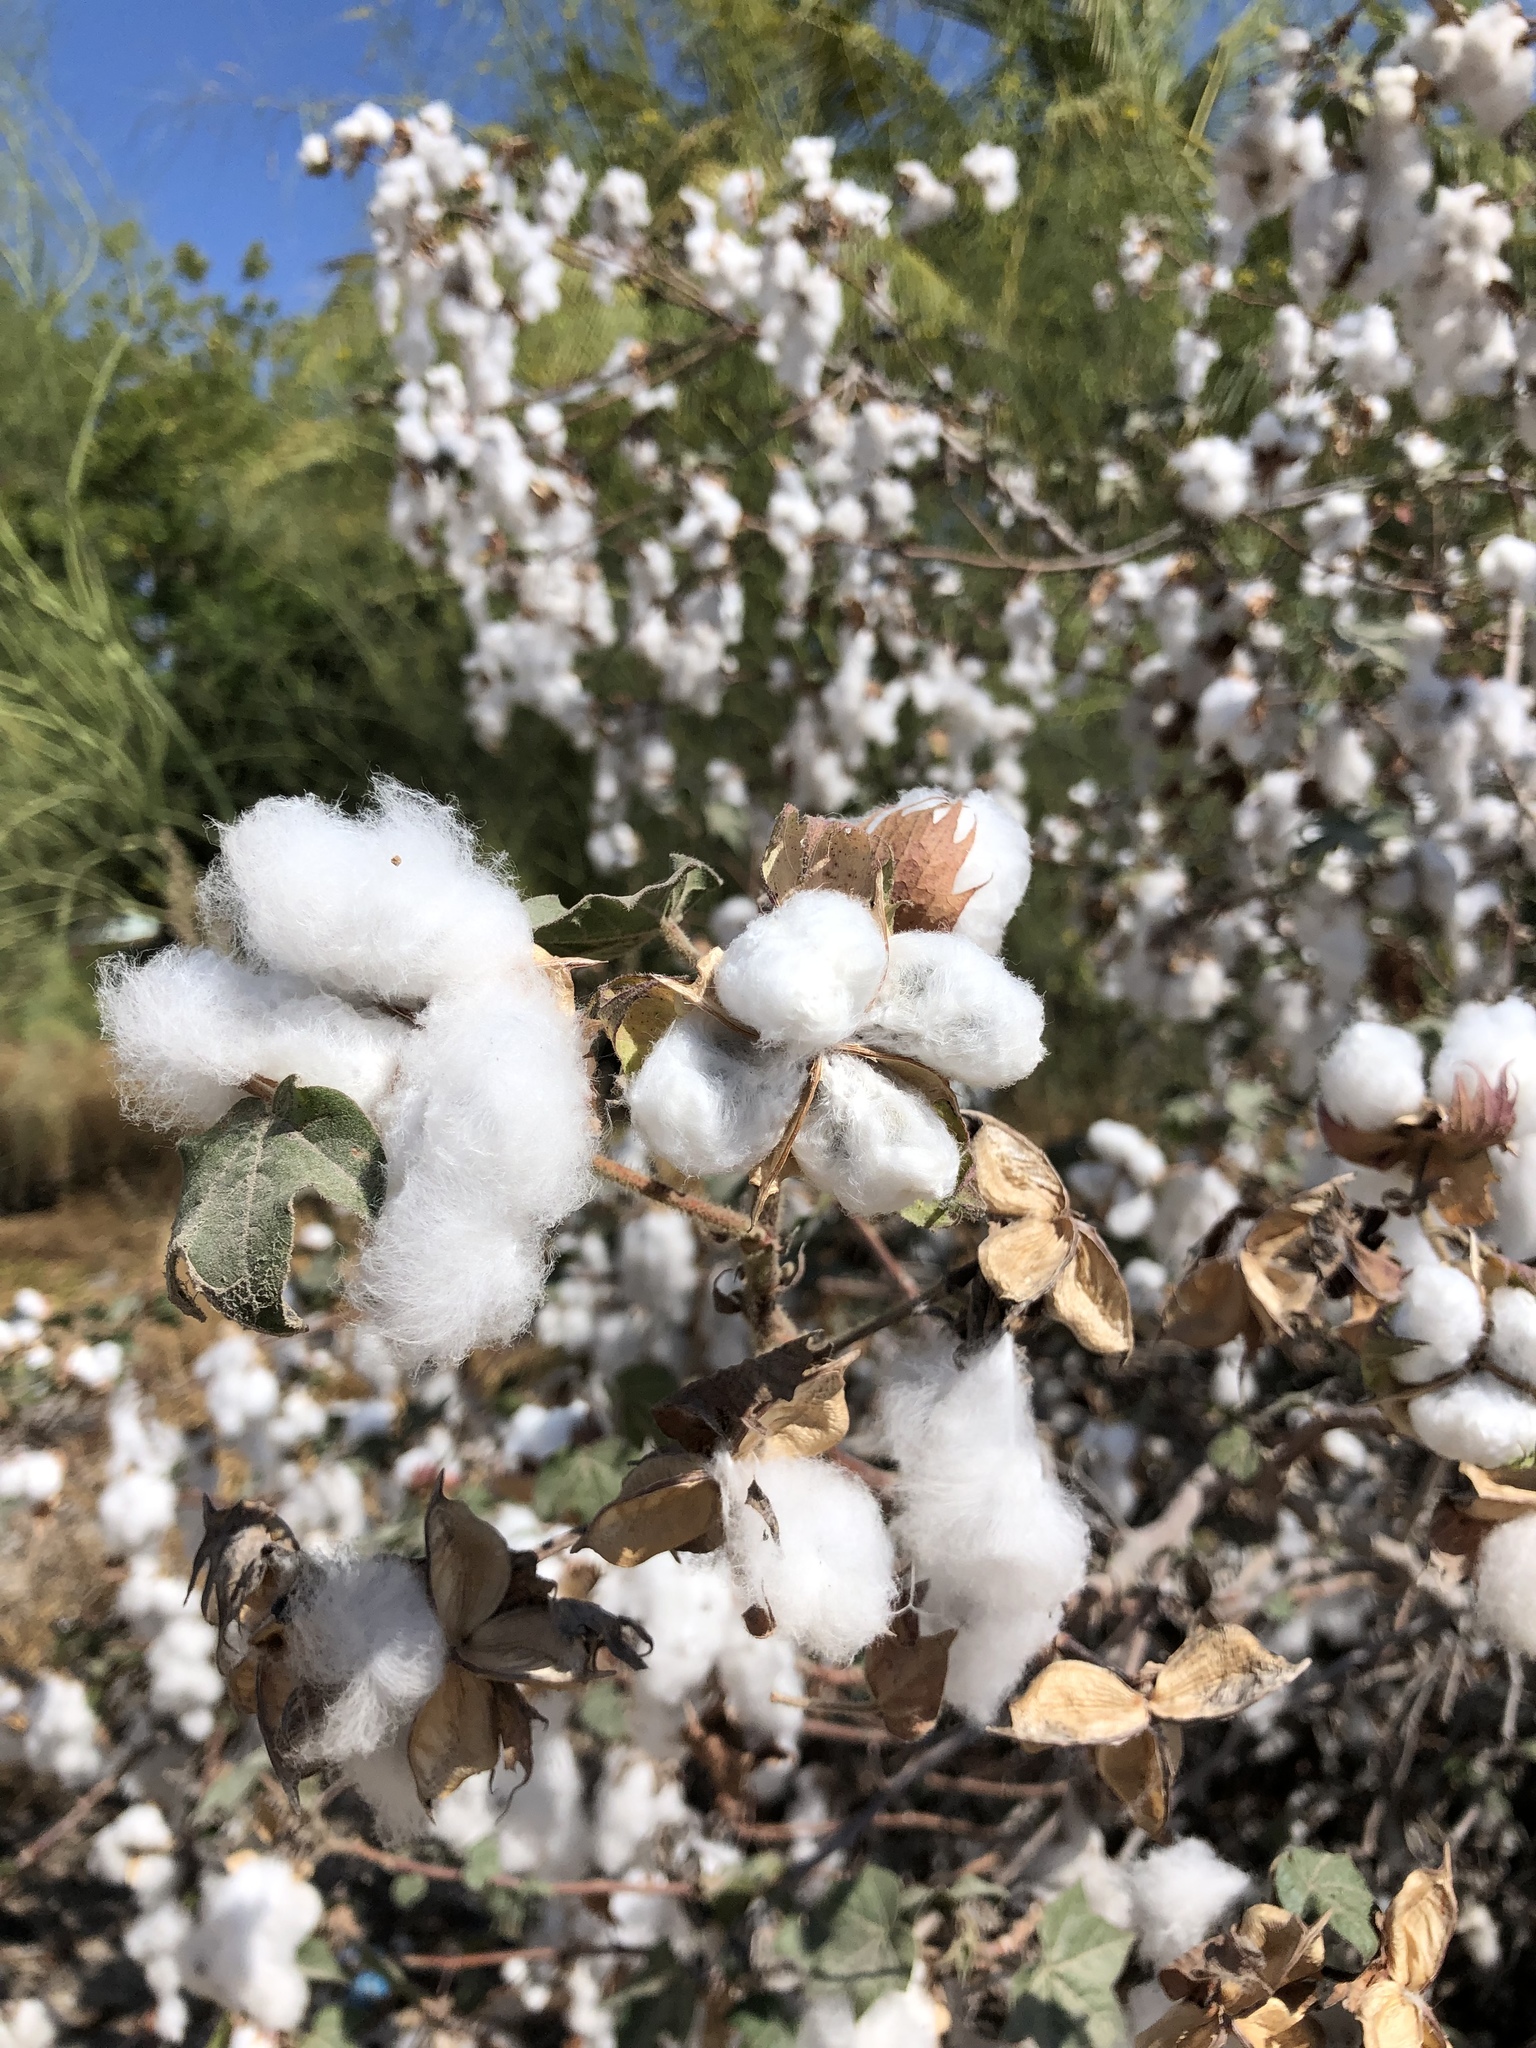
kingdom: Plantae
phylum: Tracheophyta
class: Magnoliopsida
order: Malvales
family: Malvaceae
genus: Gossypium
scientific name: Gossypium hirsutum
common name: Cotton
